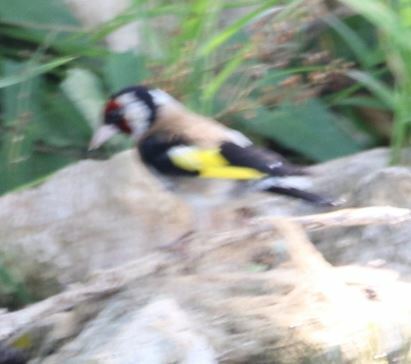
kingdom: Animalia
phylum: Chordata
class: Aves
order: Passeriformes
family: Fringillidae
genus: Carduelis
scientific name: Carduelis carduelis
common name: European goldfinch
